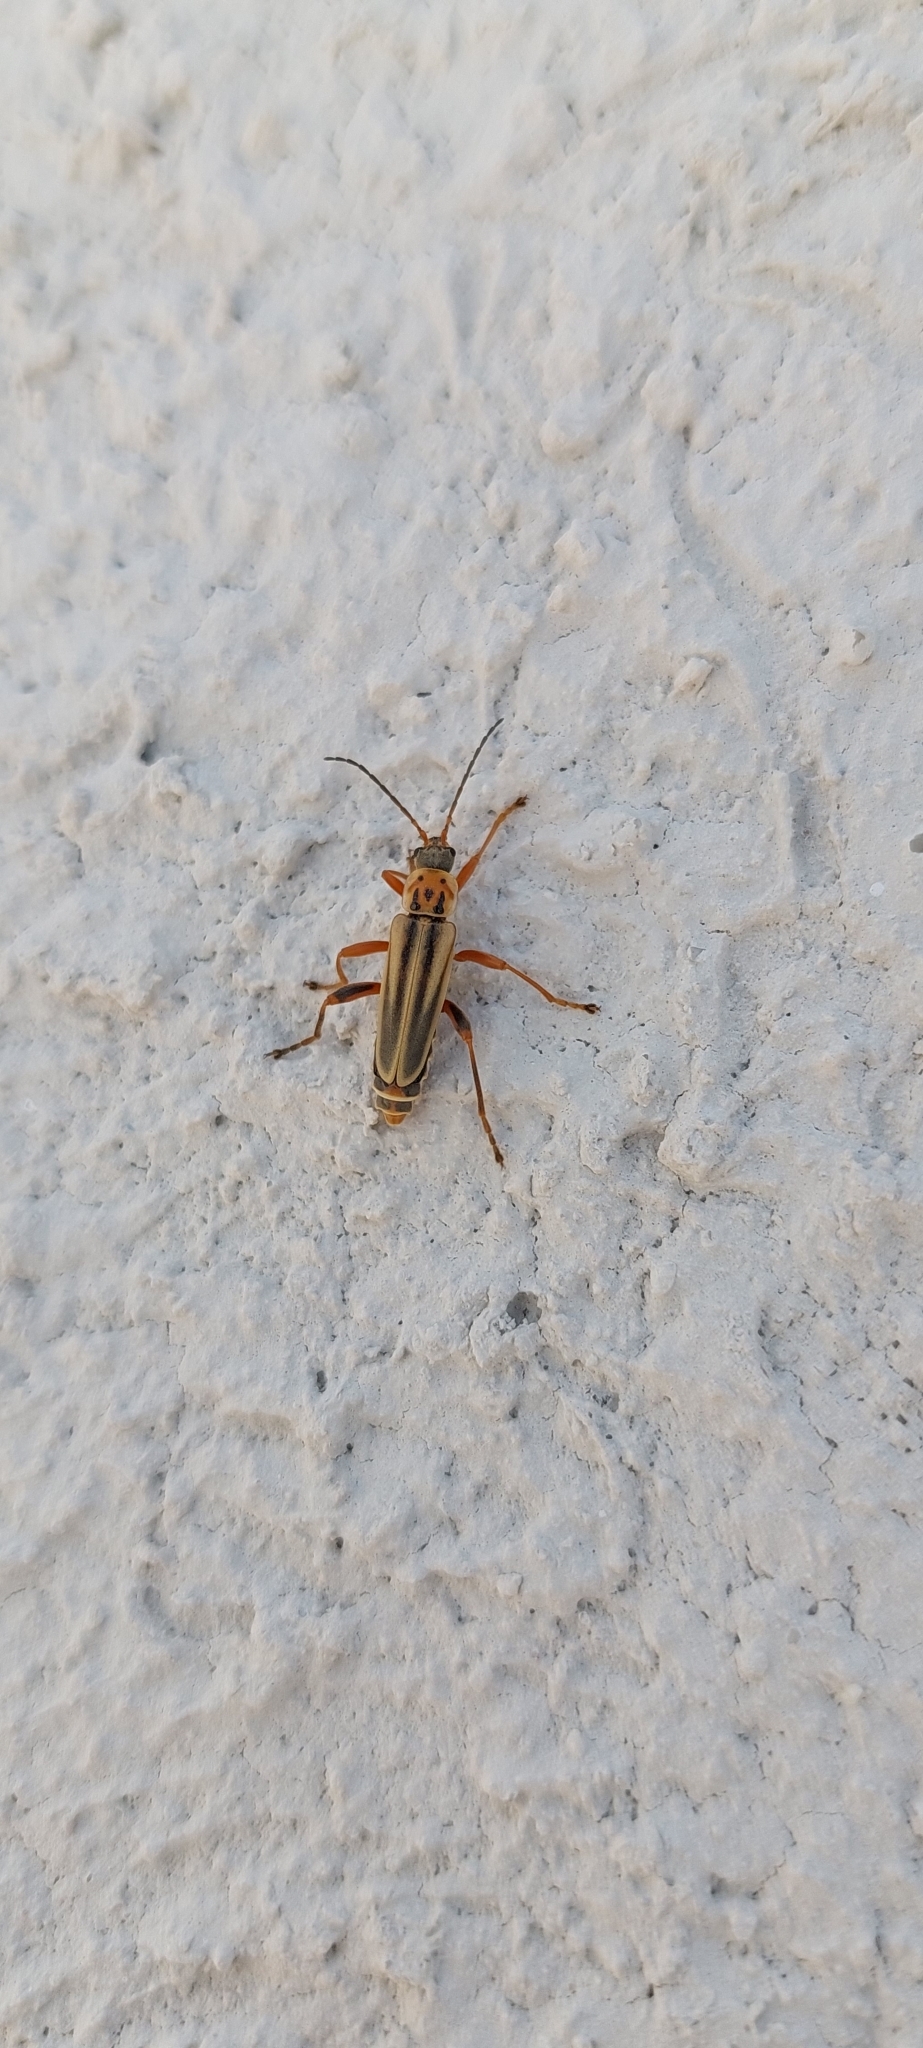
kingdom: Animalia
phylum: Arthropoda
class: Insecta
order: Coleoptera
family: Cantharidae
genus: Chauliognathus
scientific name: Chauliognathus
